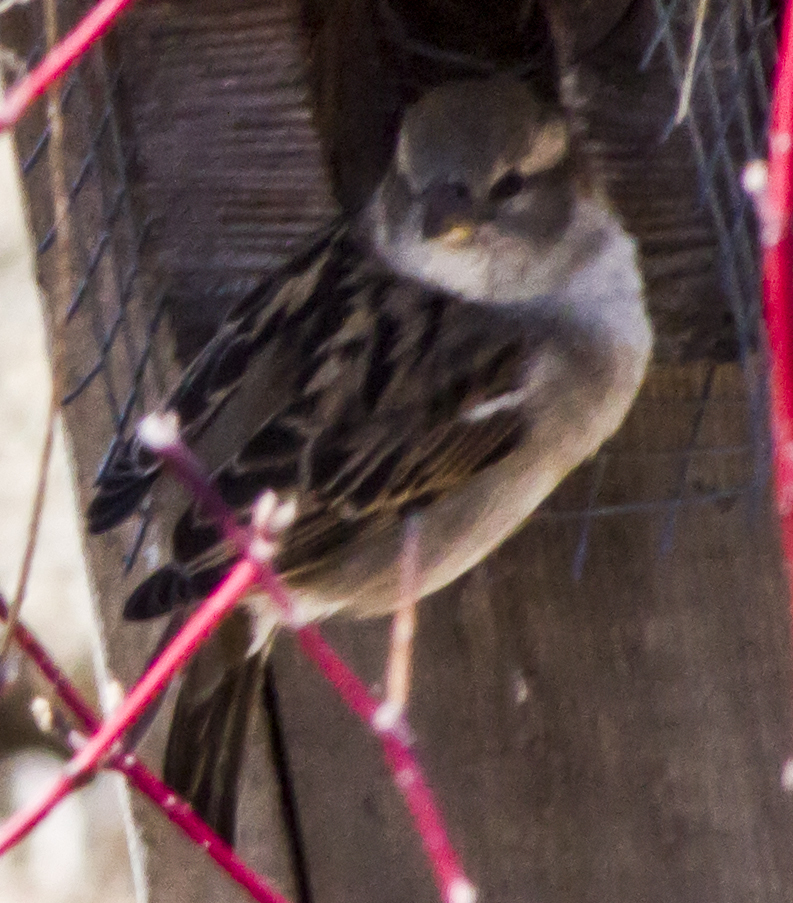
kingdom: Animalia
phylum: Chordata
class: Aves
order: Passeriformes
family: Passeridae
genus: Passer
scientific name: Passer domesticus
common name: House sparrow
